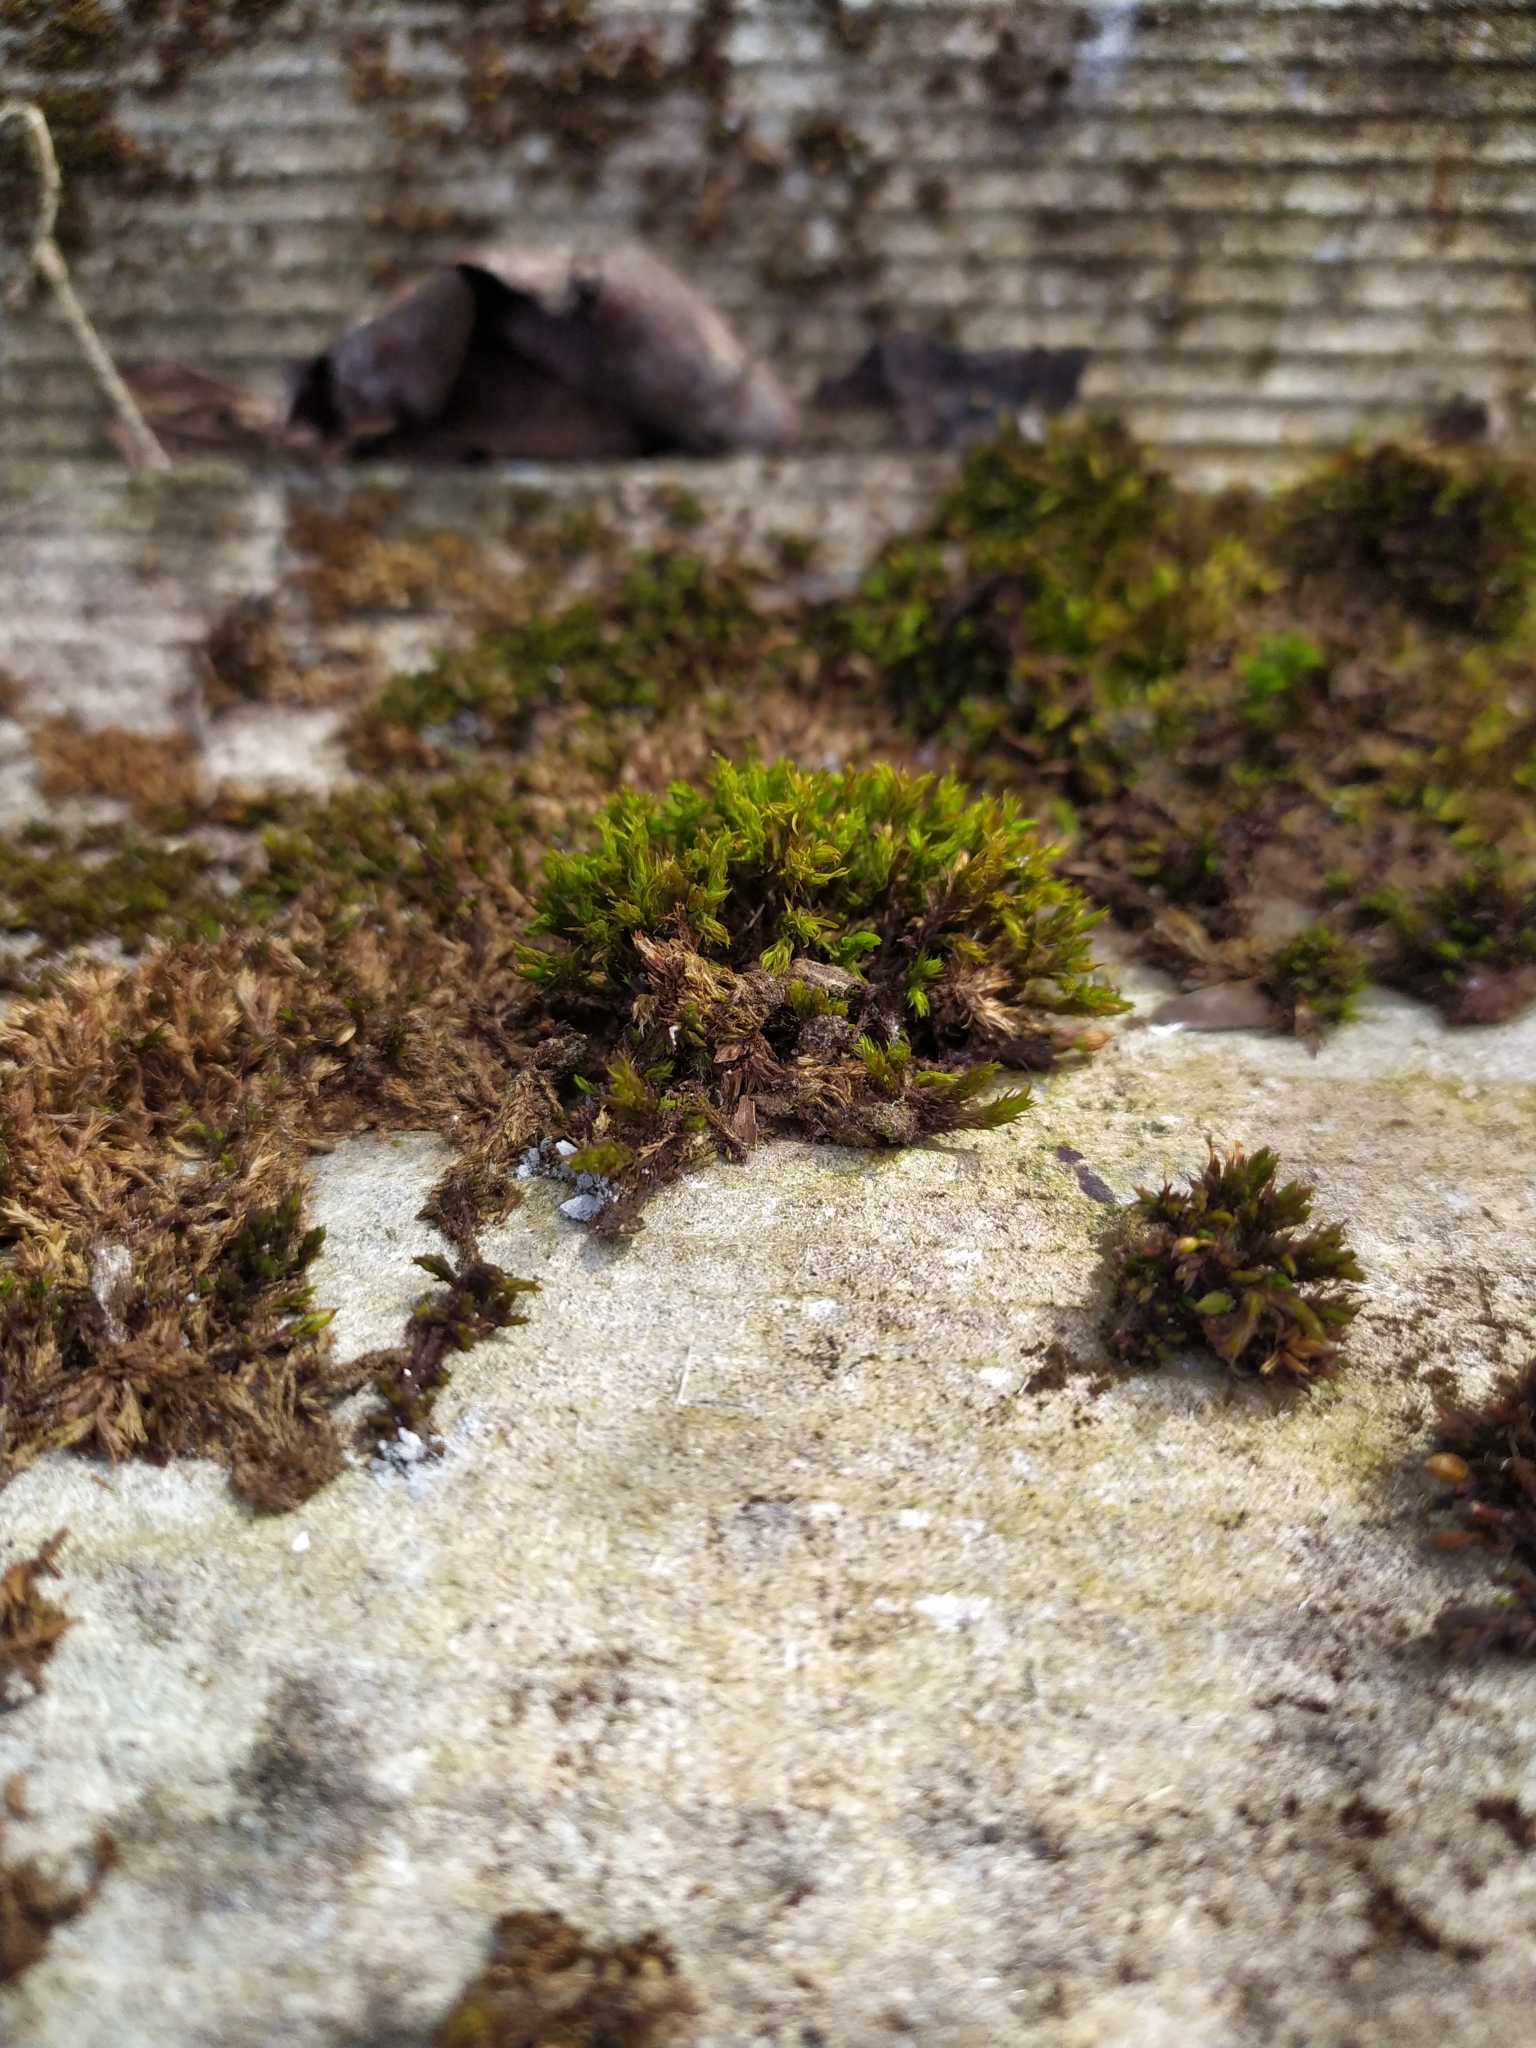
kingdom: Plantae
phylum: Bryophyta
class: Bryopsida
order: Orthotrichales
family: Orthotrichaceae
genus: Orthotrichum
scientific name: Orthotrichum anomalum
